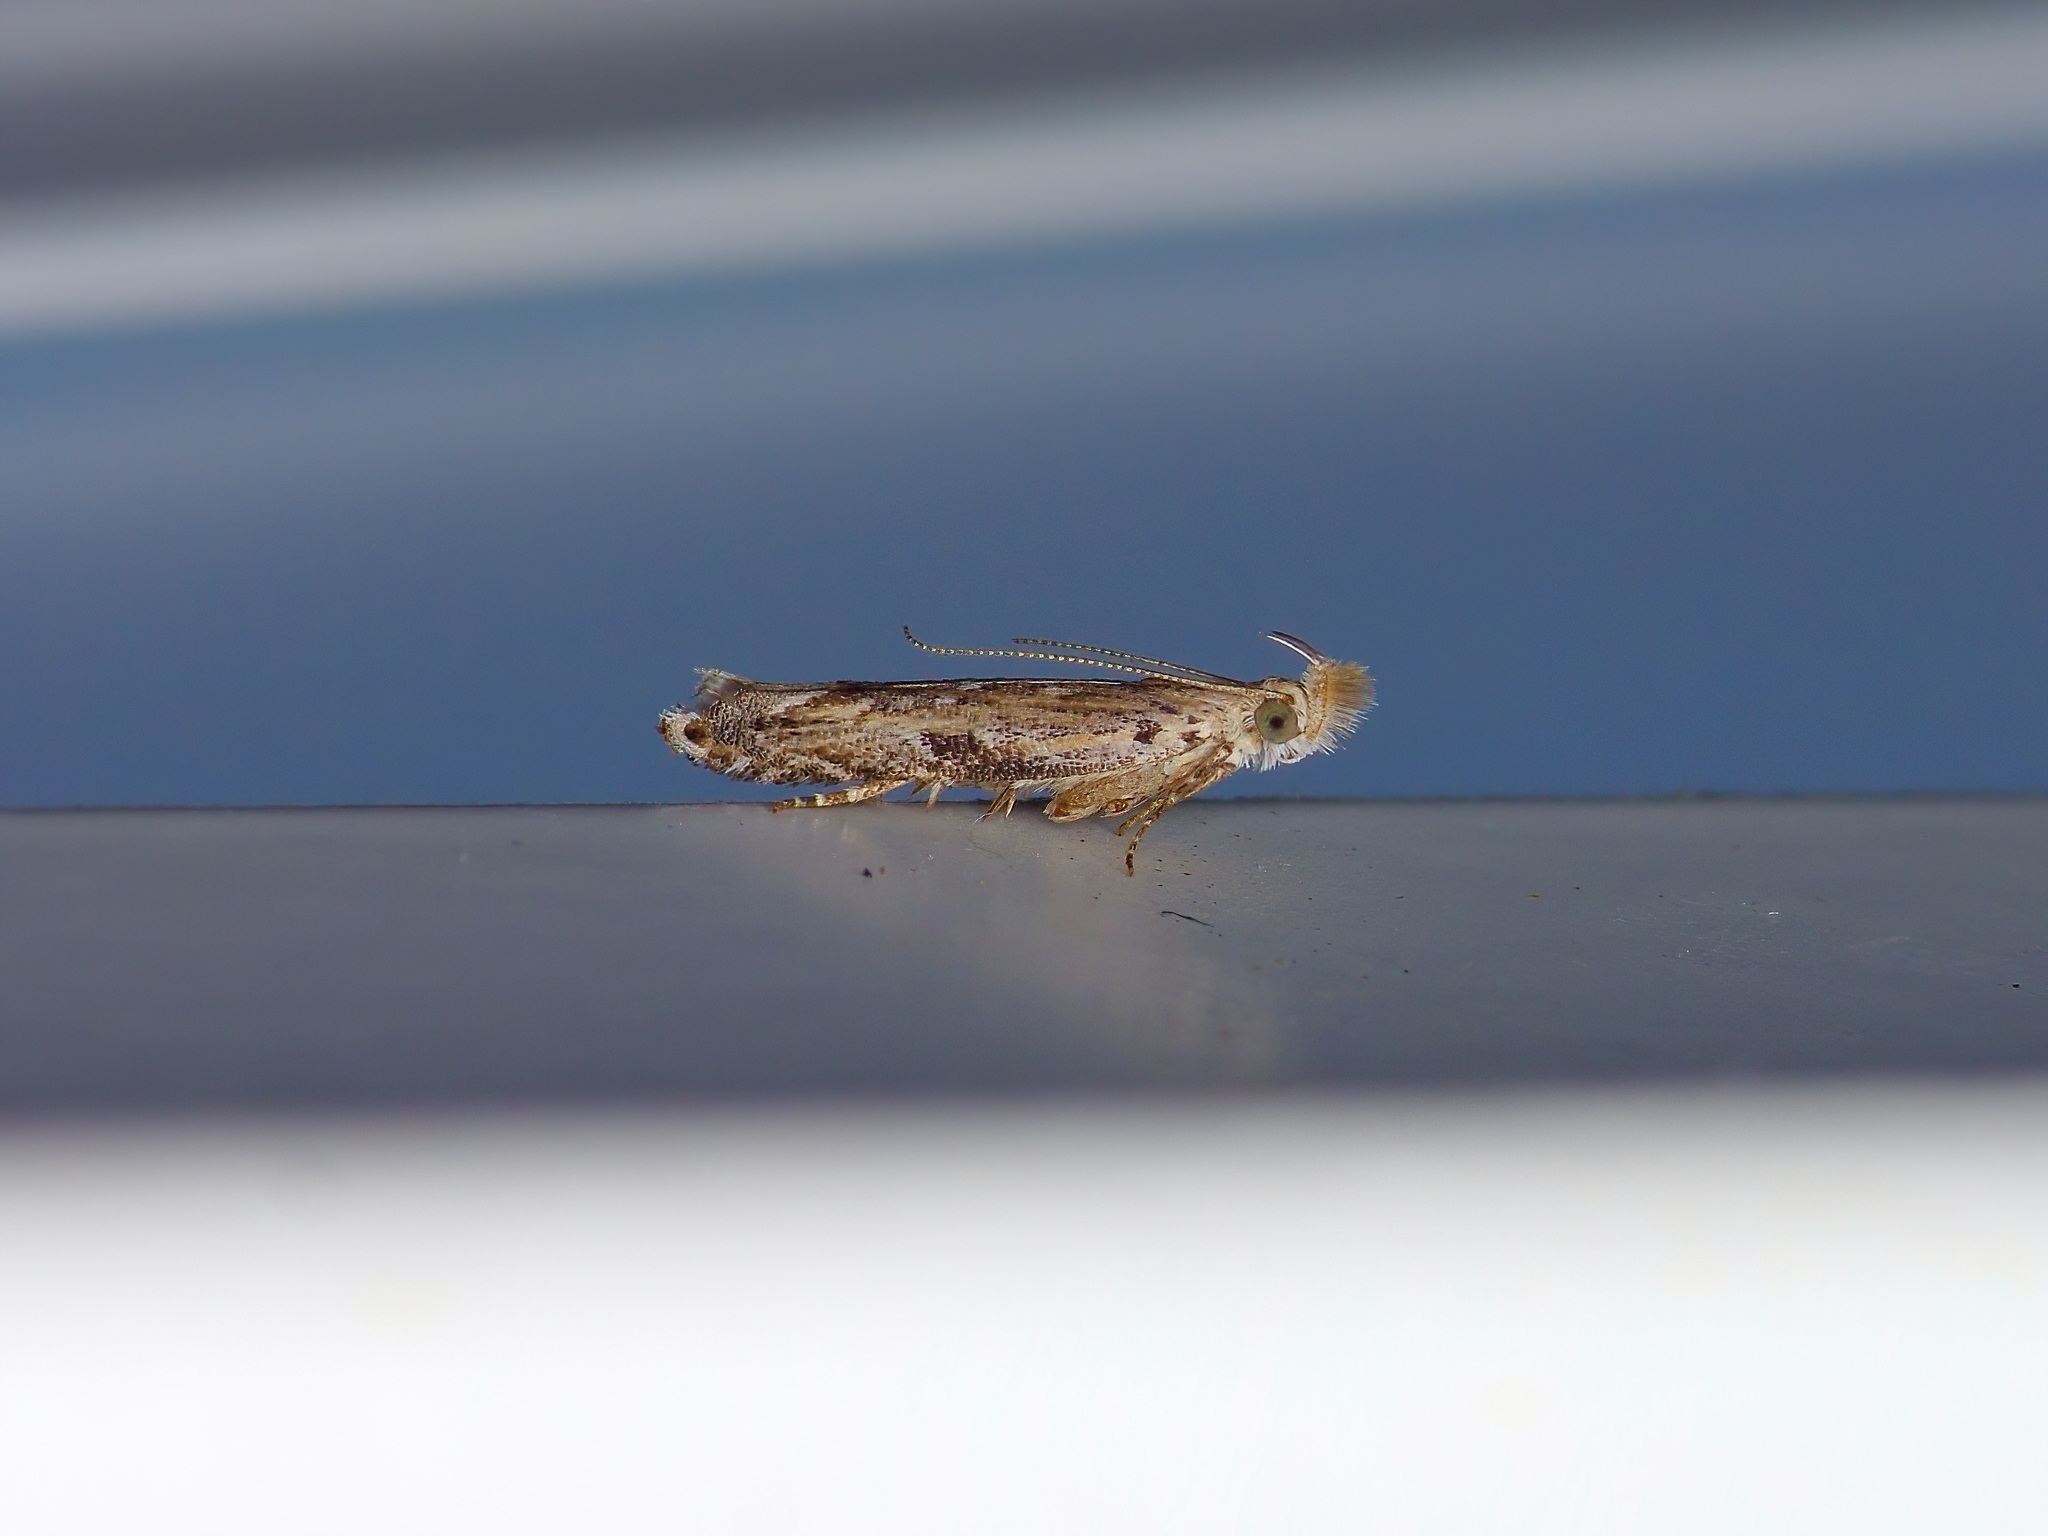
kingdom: Animalia
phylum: Arthropoda
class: Insecta
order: Lepidoptera
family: Gelechiidae
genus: Sophronia
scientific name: Sophronia roseicrinella
